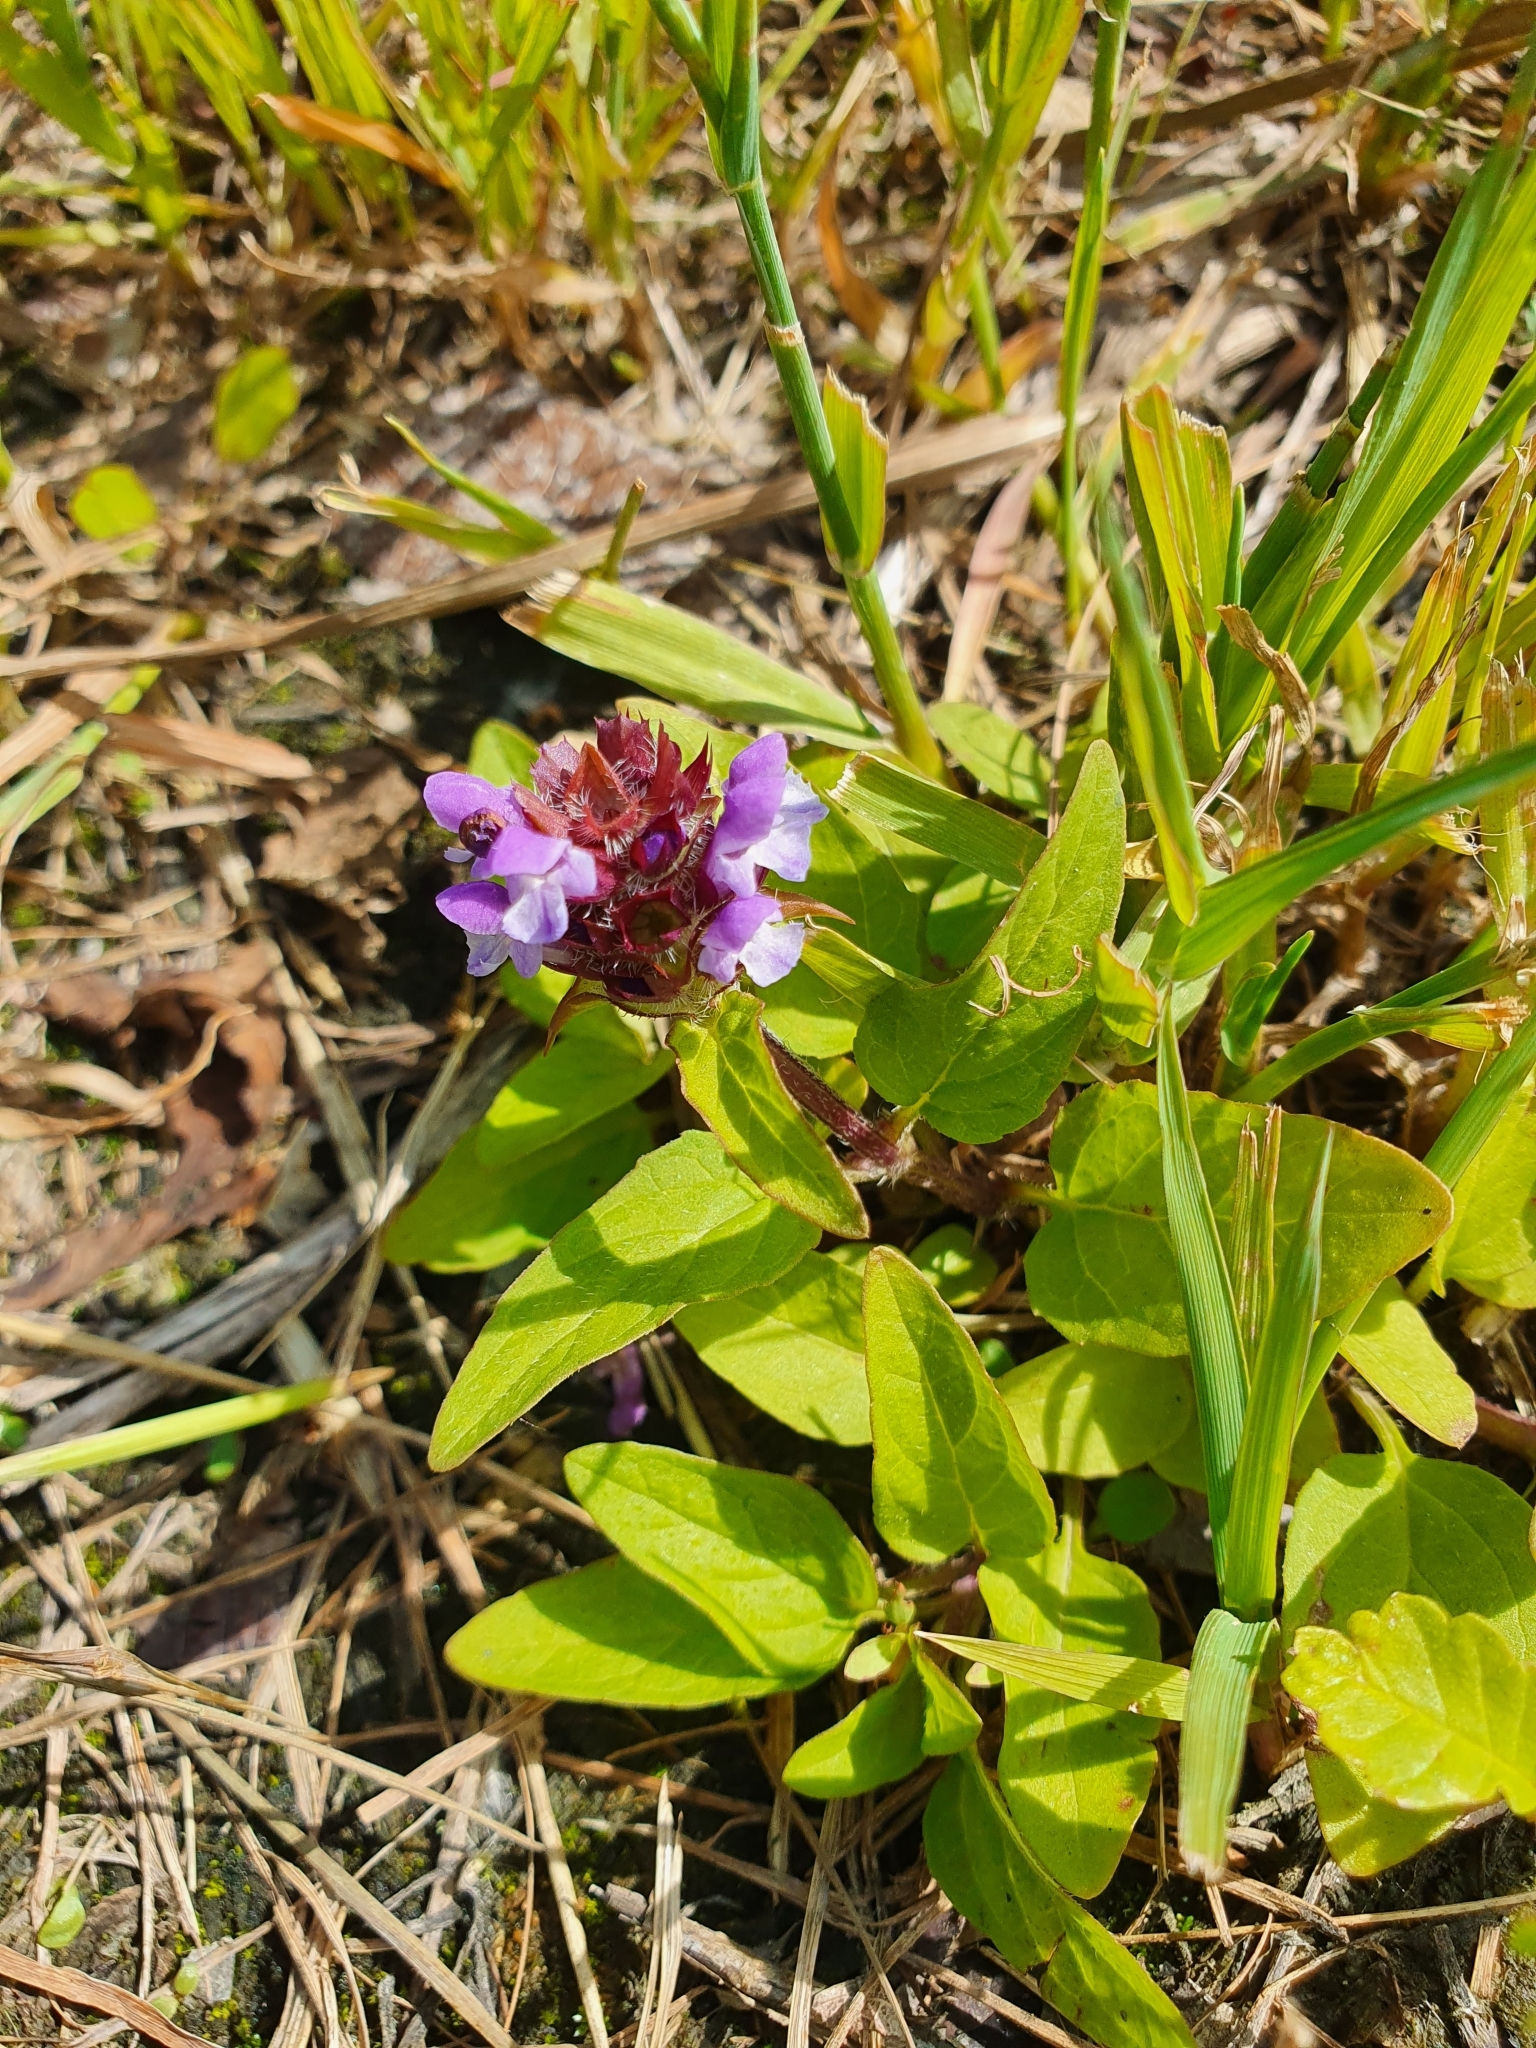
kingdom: Plantae
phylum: Tracheophyta
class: Magnoliopsida
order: Lamiales
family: Lamiaceae
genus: Prunella
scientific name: Prunella vulgaris
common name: Heal-all
